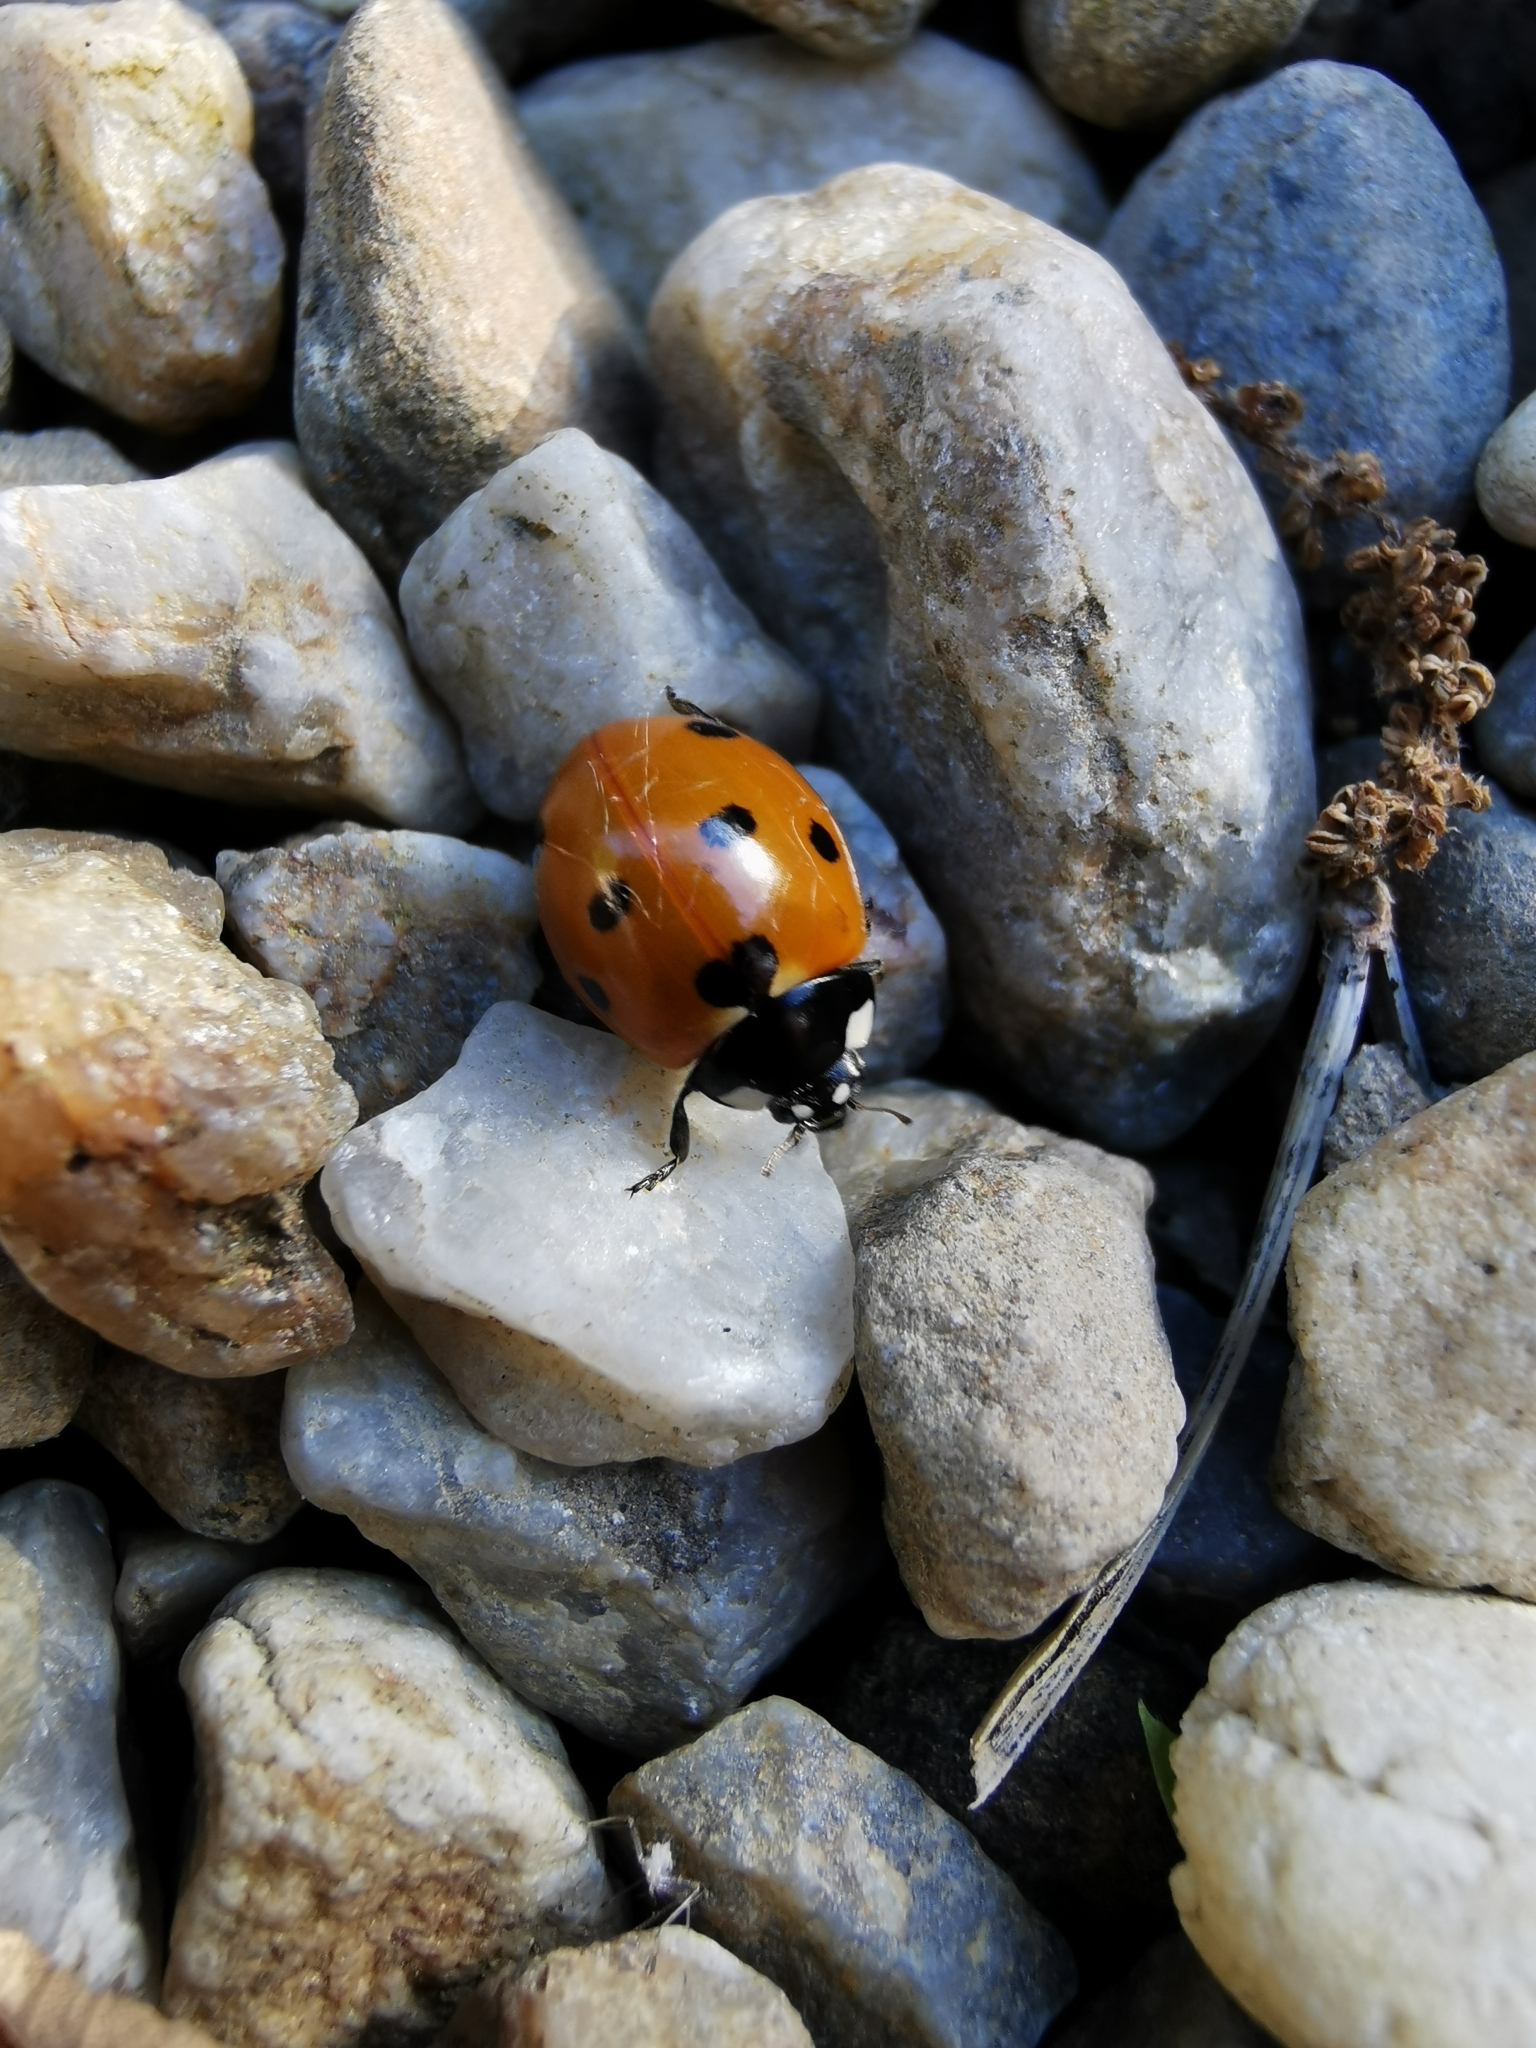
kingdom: Animalia
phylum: Arthropoda
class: Insecta
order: Coleoptera
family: Coccinellidae
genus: Coccinella
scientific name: Coccinella septempunctata
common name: Sevenspotted lady beetle
